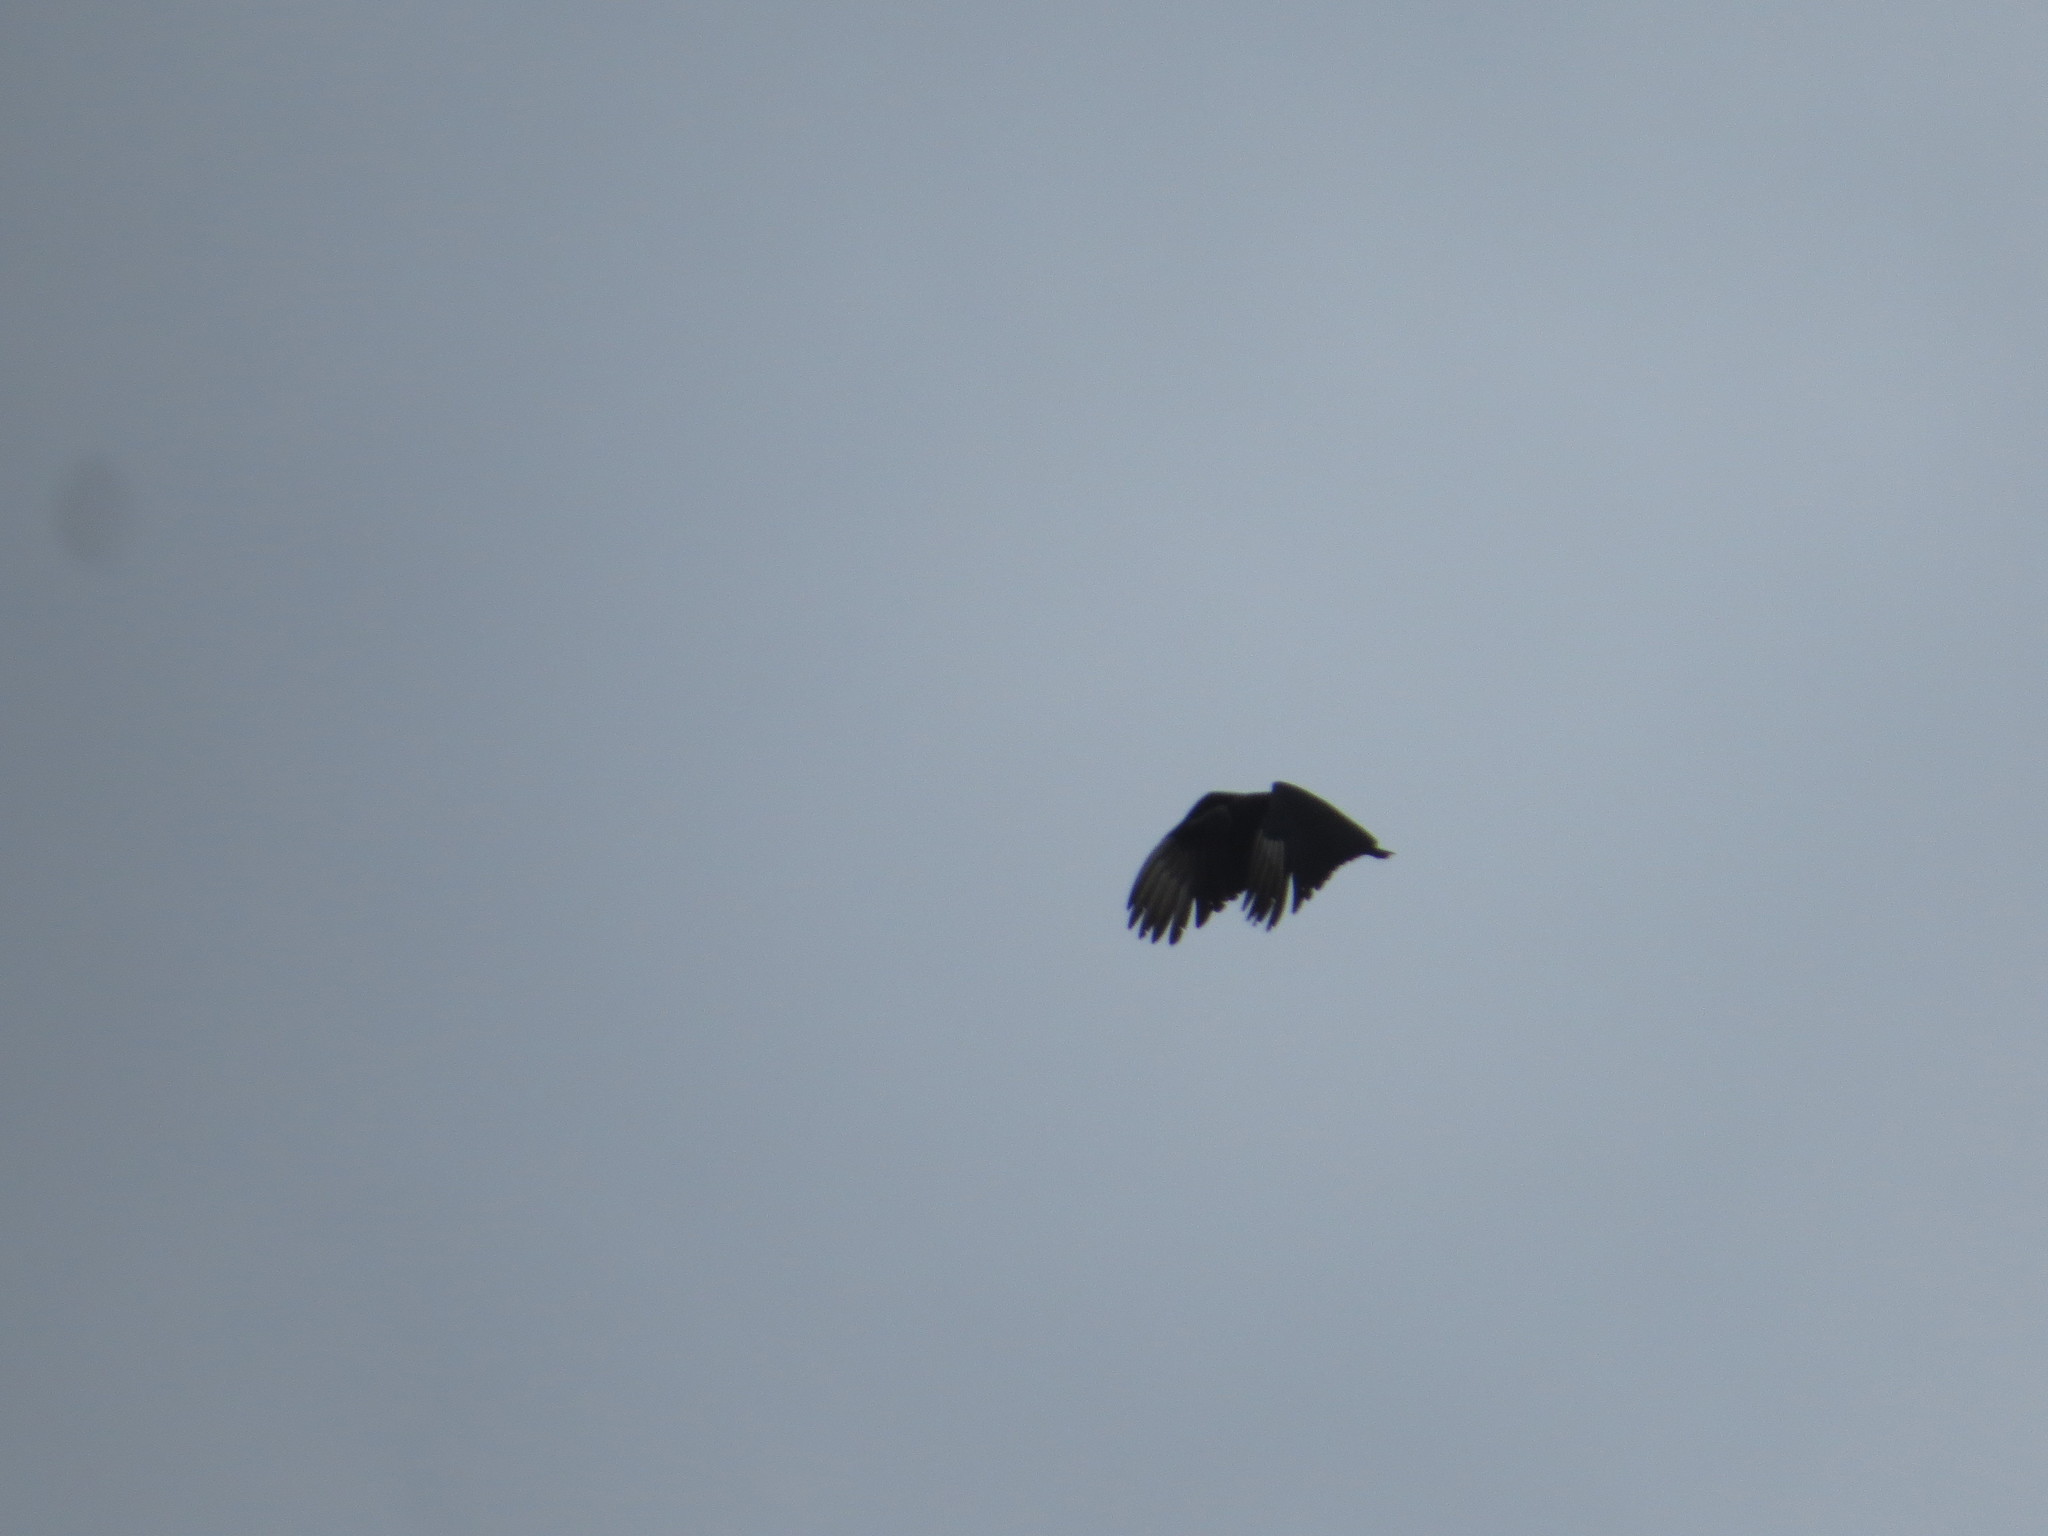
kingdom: Animalia
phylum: Chordata
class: Aves
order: Accipitriformes
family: Cathartidae
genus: Coragyps
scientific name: Coragyps atratus
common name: Black vulture
